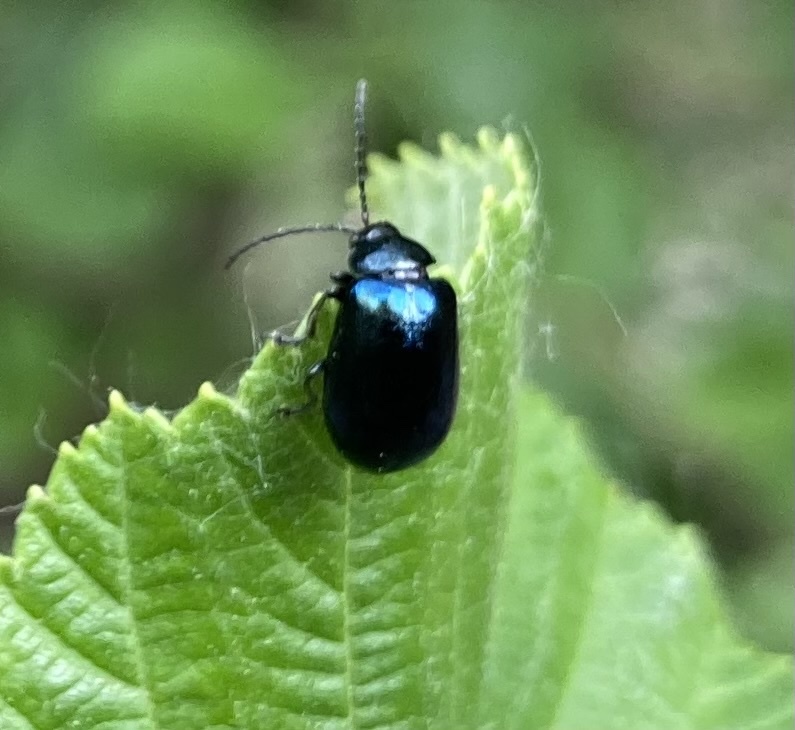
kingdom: Animalia
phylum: Arthropoda
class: Insecta
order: Coleoptera
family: Chrysomelidae
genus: Agelastica
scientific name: Agelastica alni
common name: Alder leaf beetle
